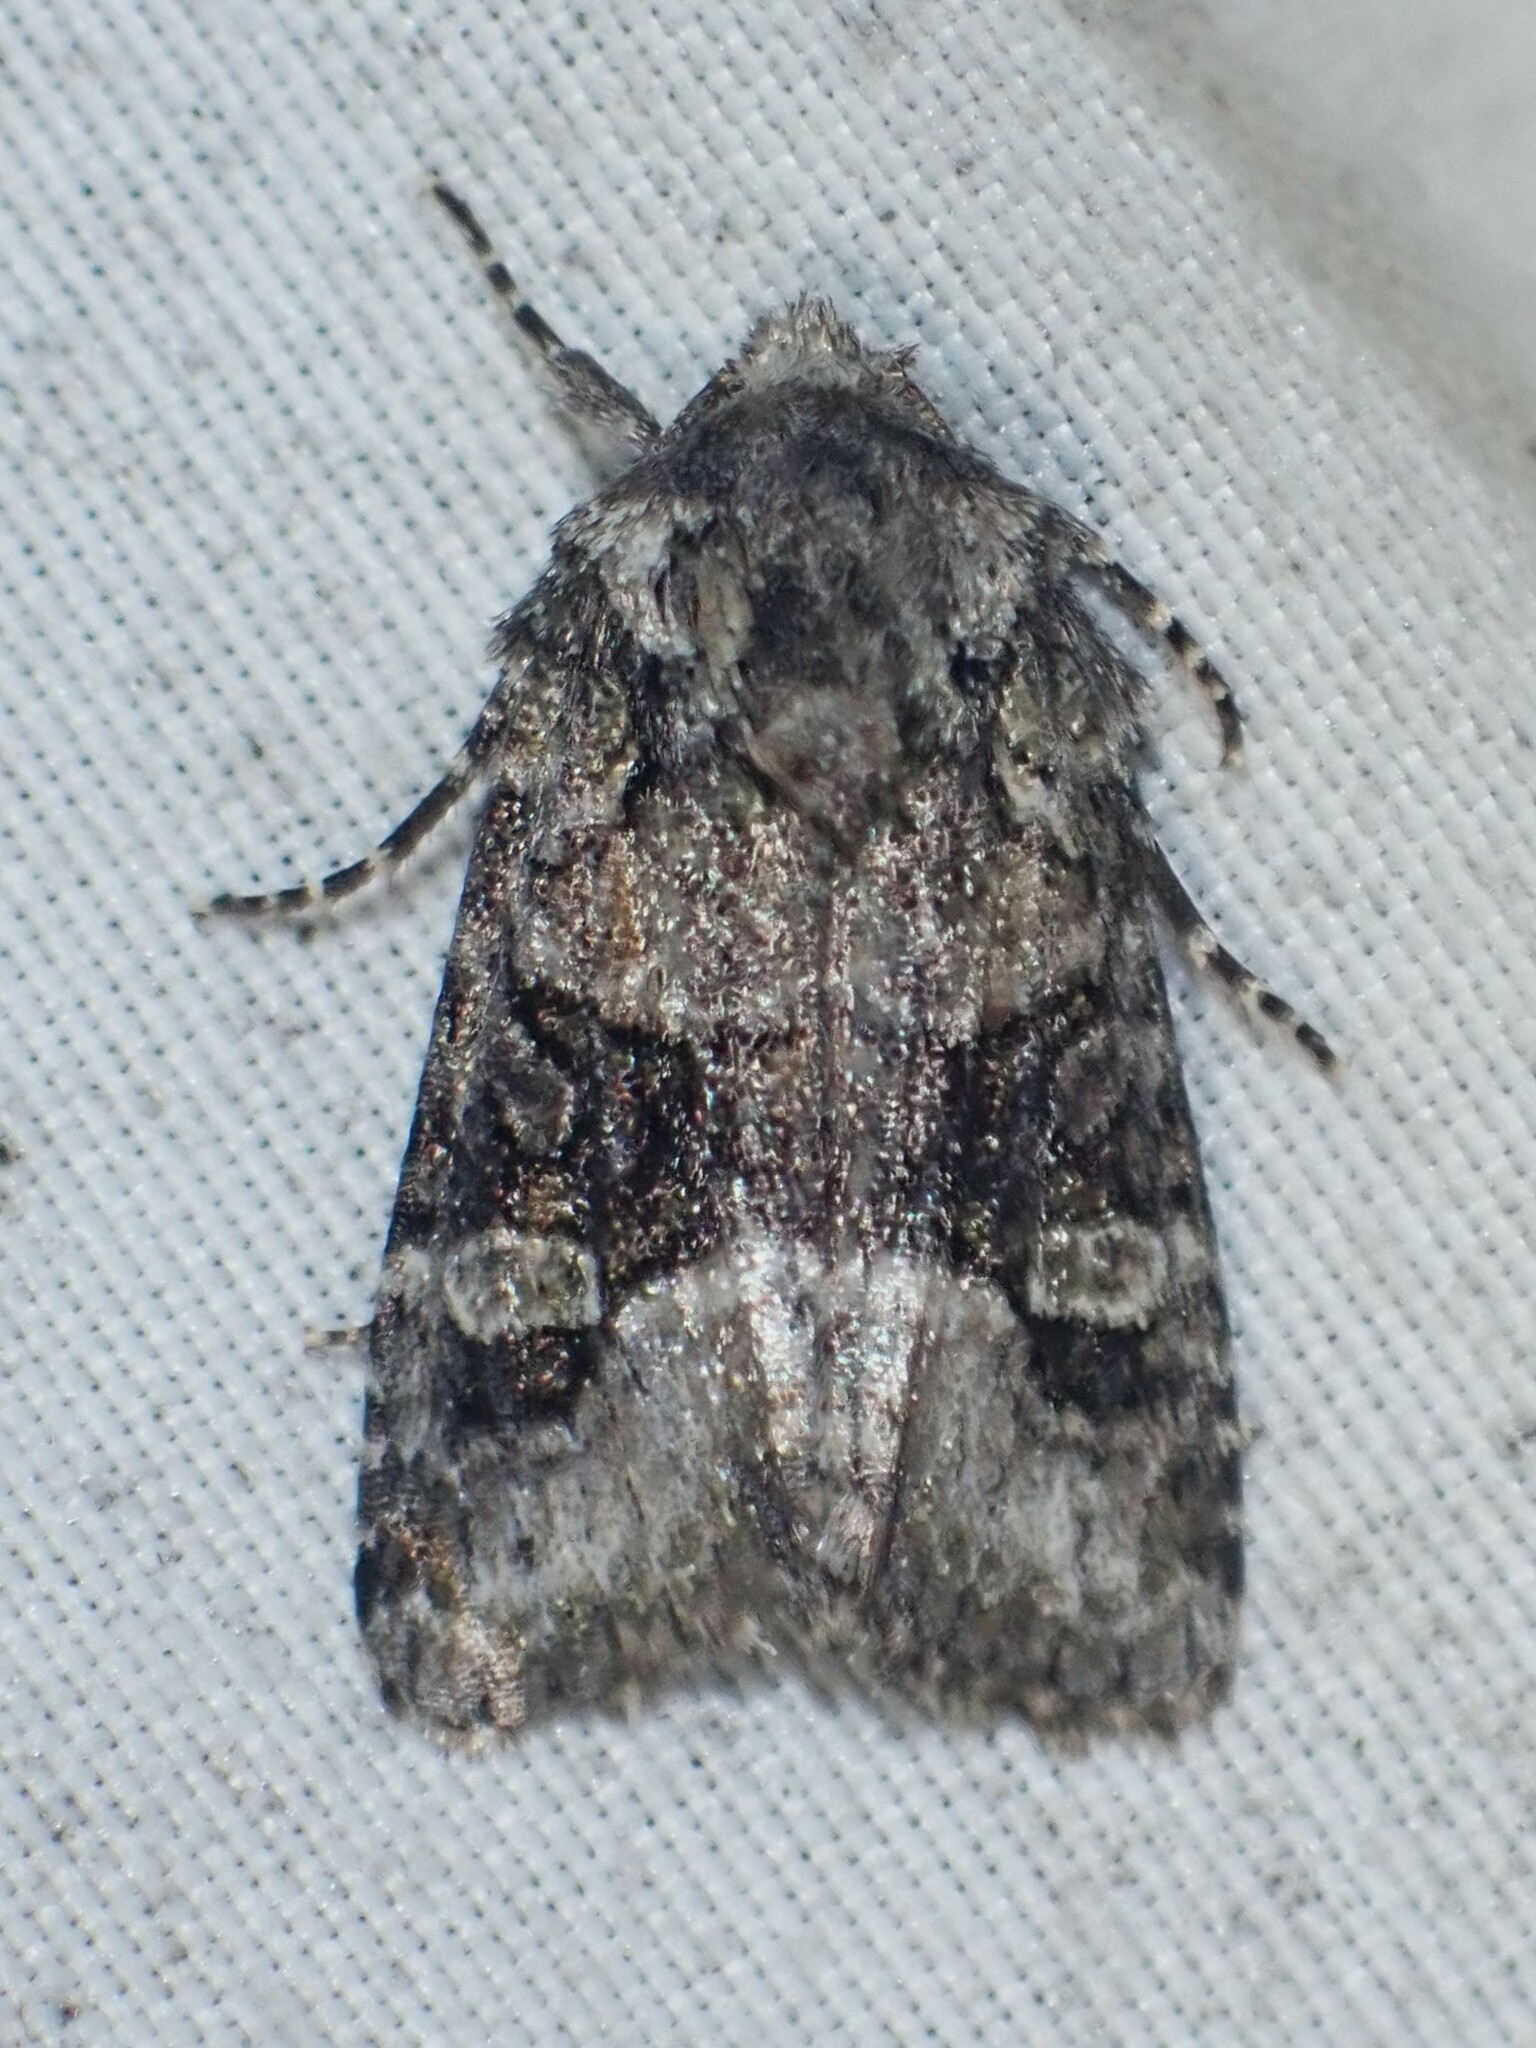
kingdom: Animalia
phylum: Arthropoda
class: Insecta
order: Lepidoptera
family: Noctuidae
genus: Lacinipolia
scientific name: Lacinipolia olivacea
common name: Olive arches moth
